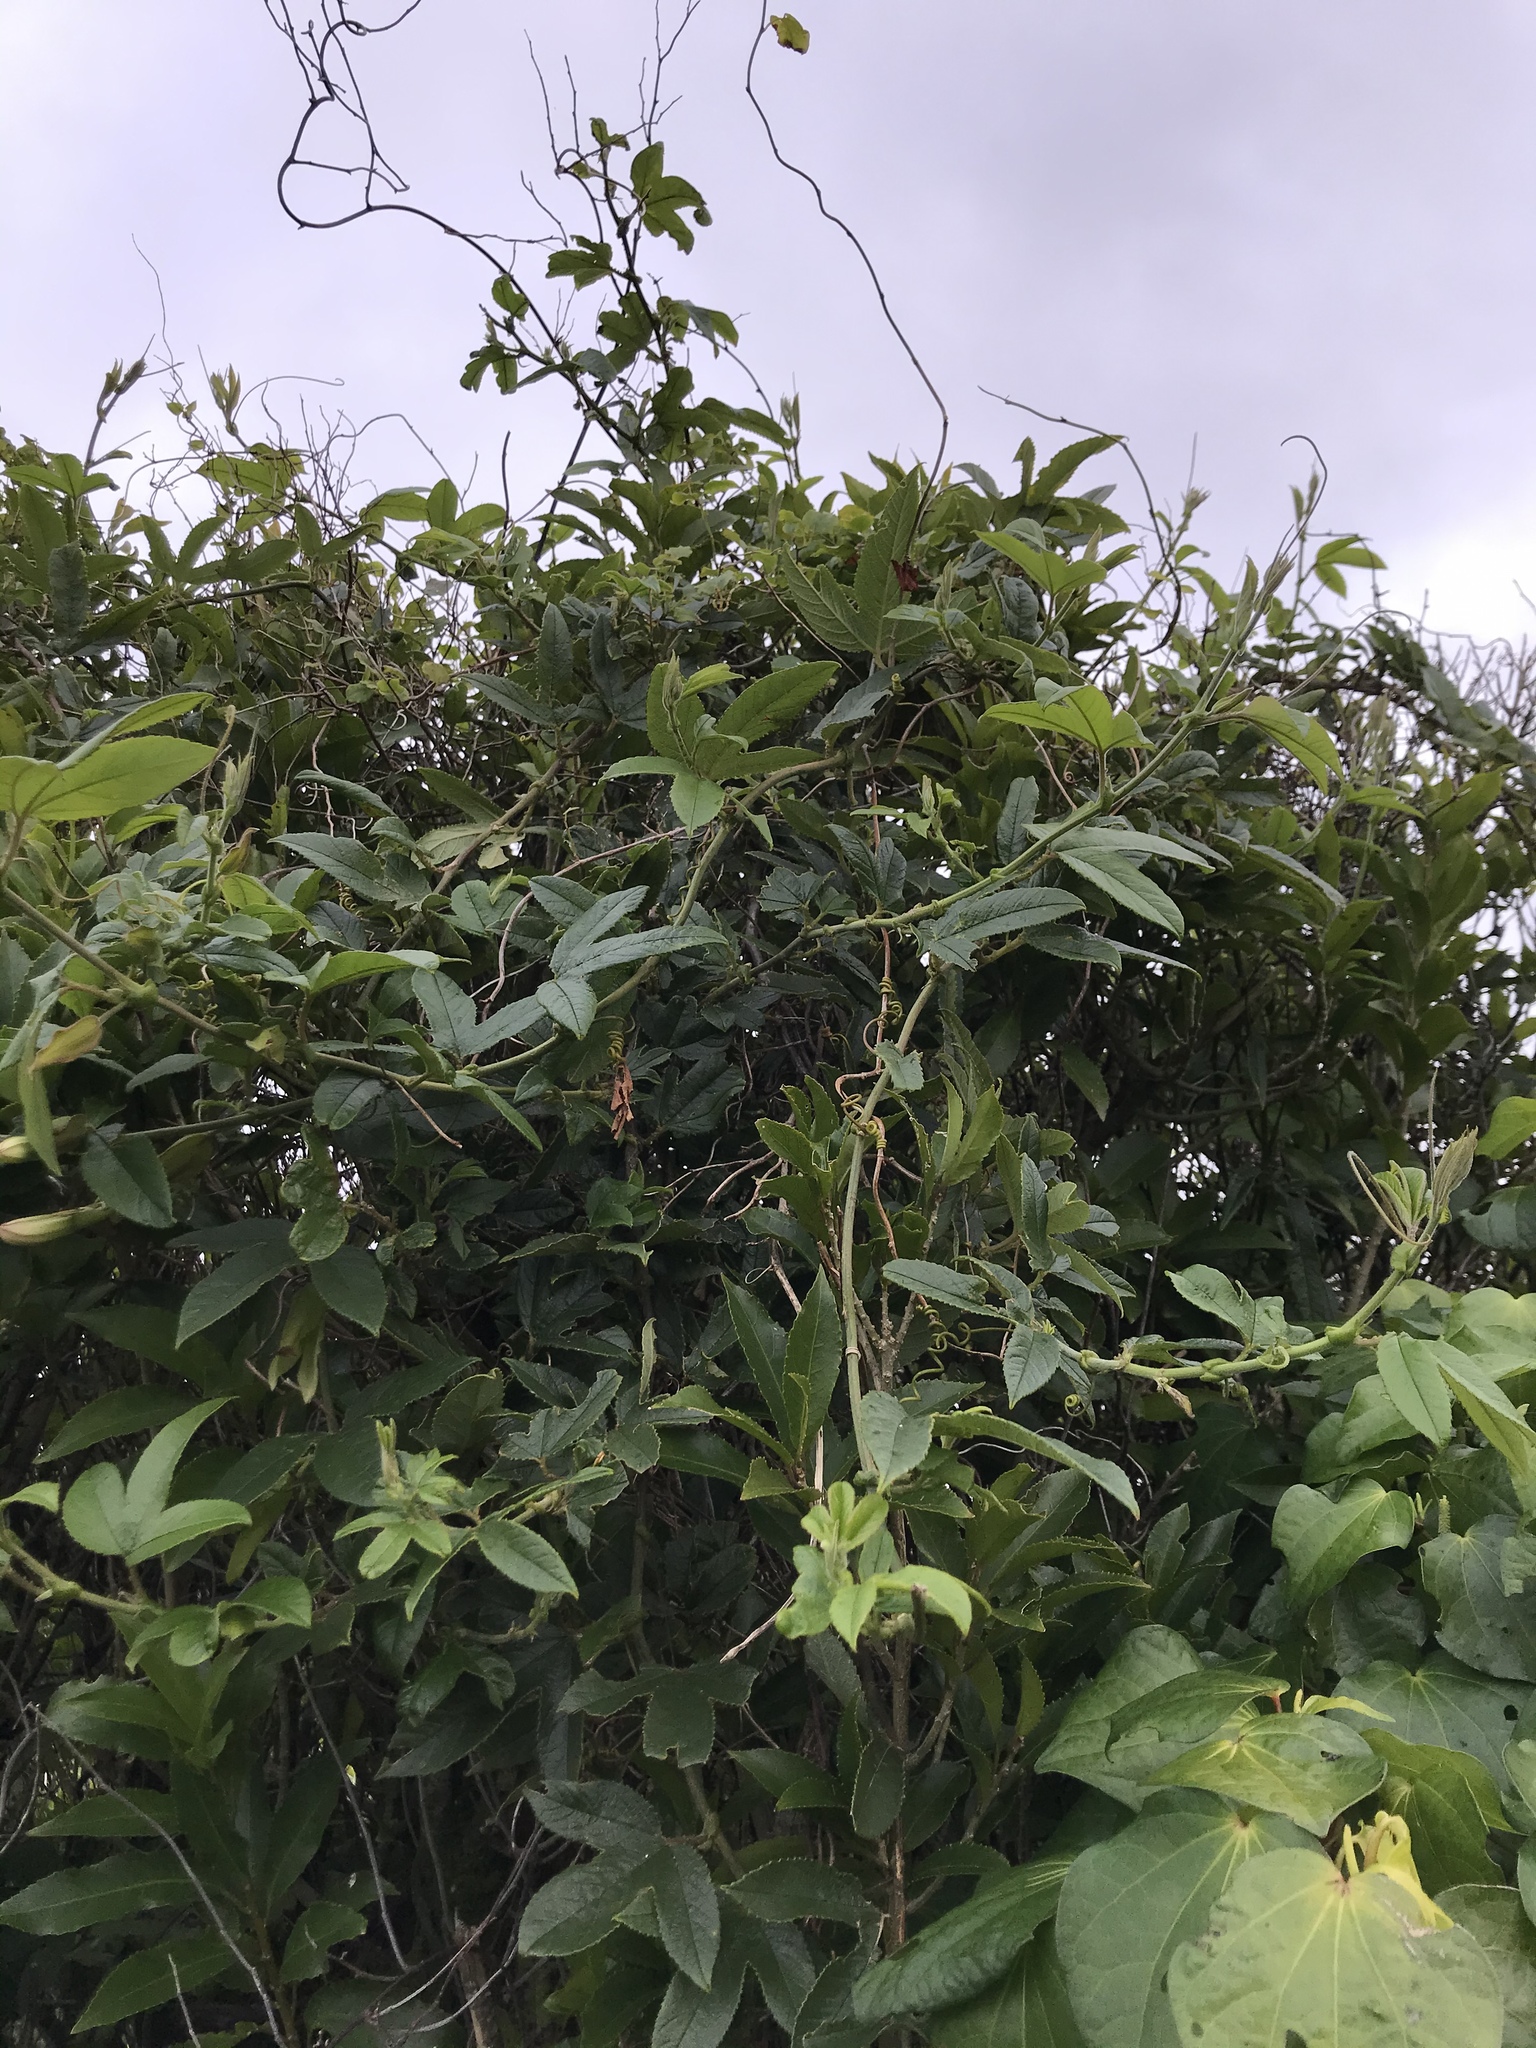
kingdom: Plantae
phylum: Tracheophyta
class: Magnoliopsida
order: Malpighiales
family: Passifloraceae
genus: Passiflora
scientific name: Passiflora tripartita
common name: Banana poka
